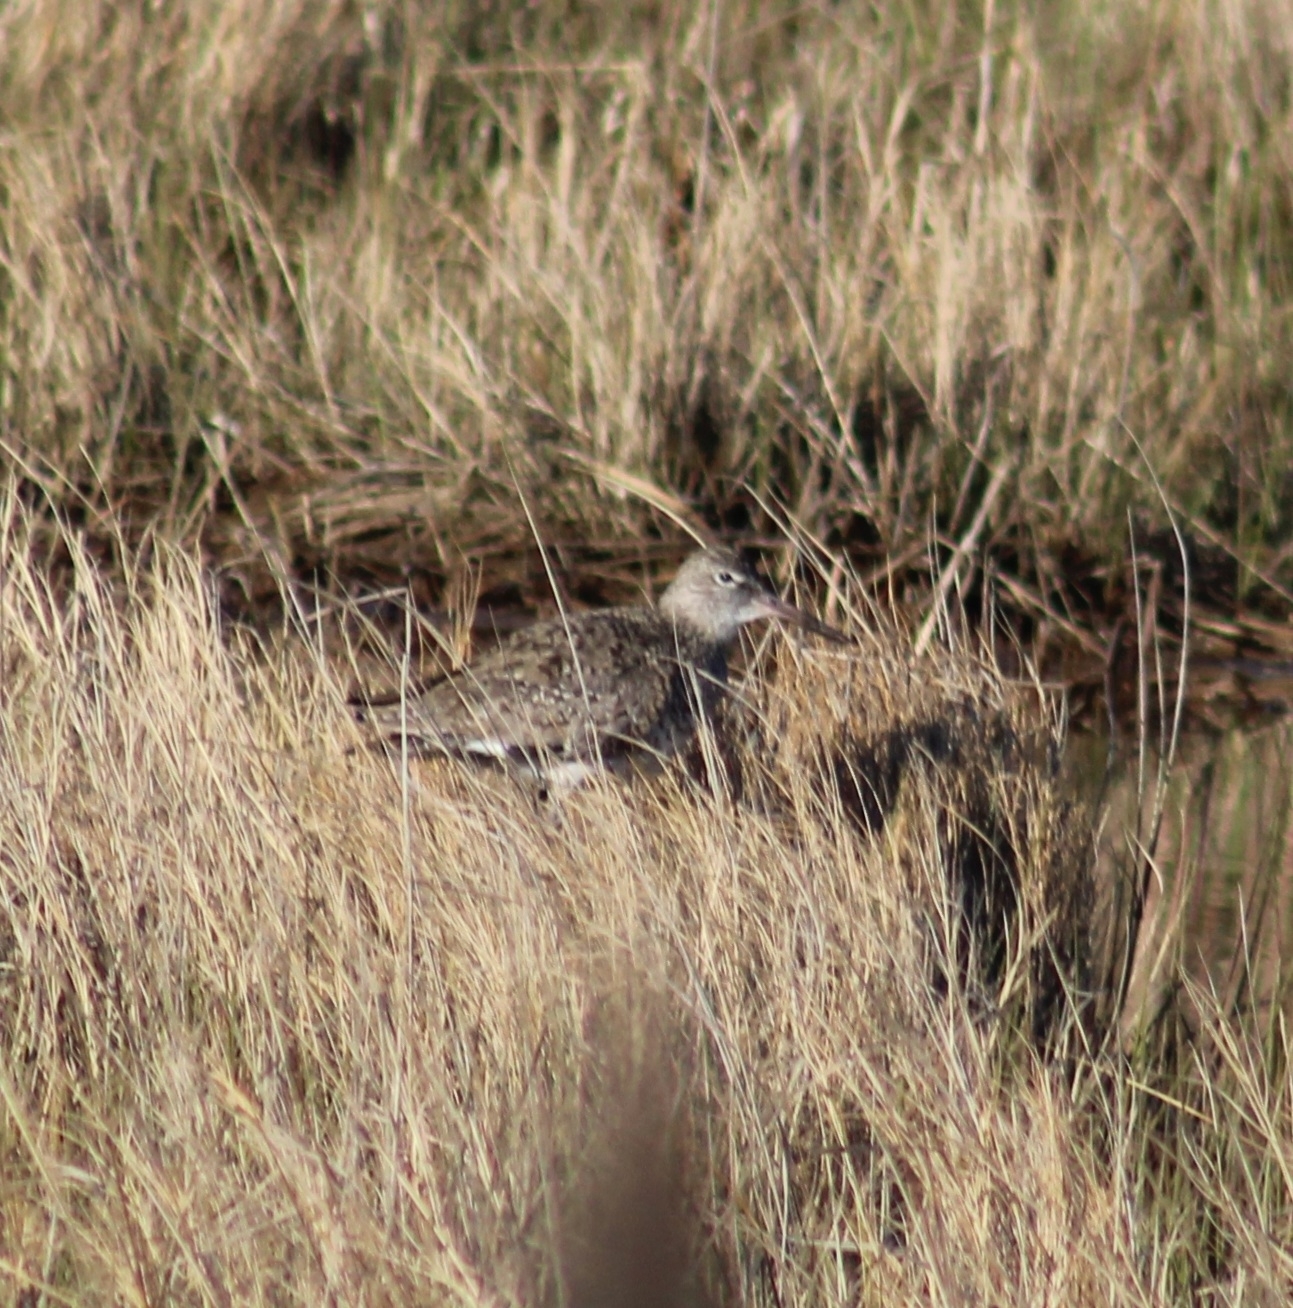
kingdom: Animalia
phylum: Chordata
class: Aves
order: Charadriiformes
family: Scolopacidae
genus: Tringa
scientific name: Tringa semipalmata
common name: Willet
